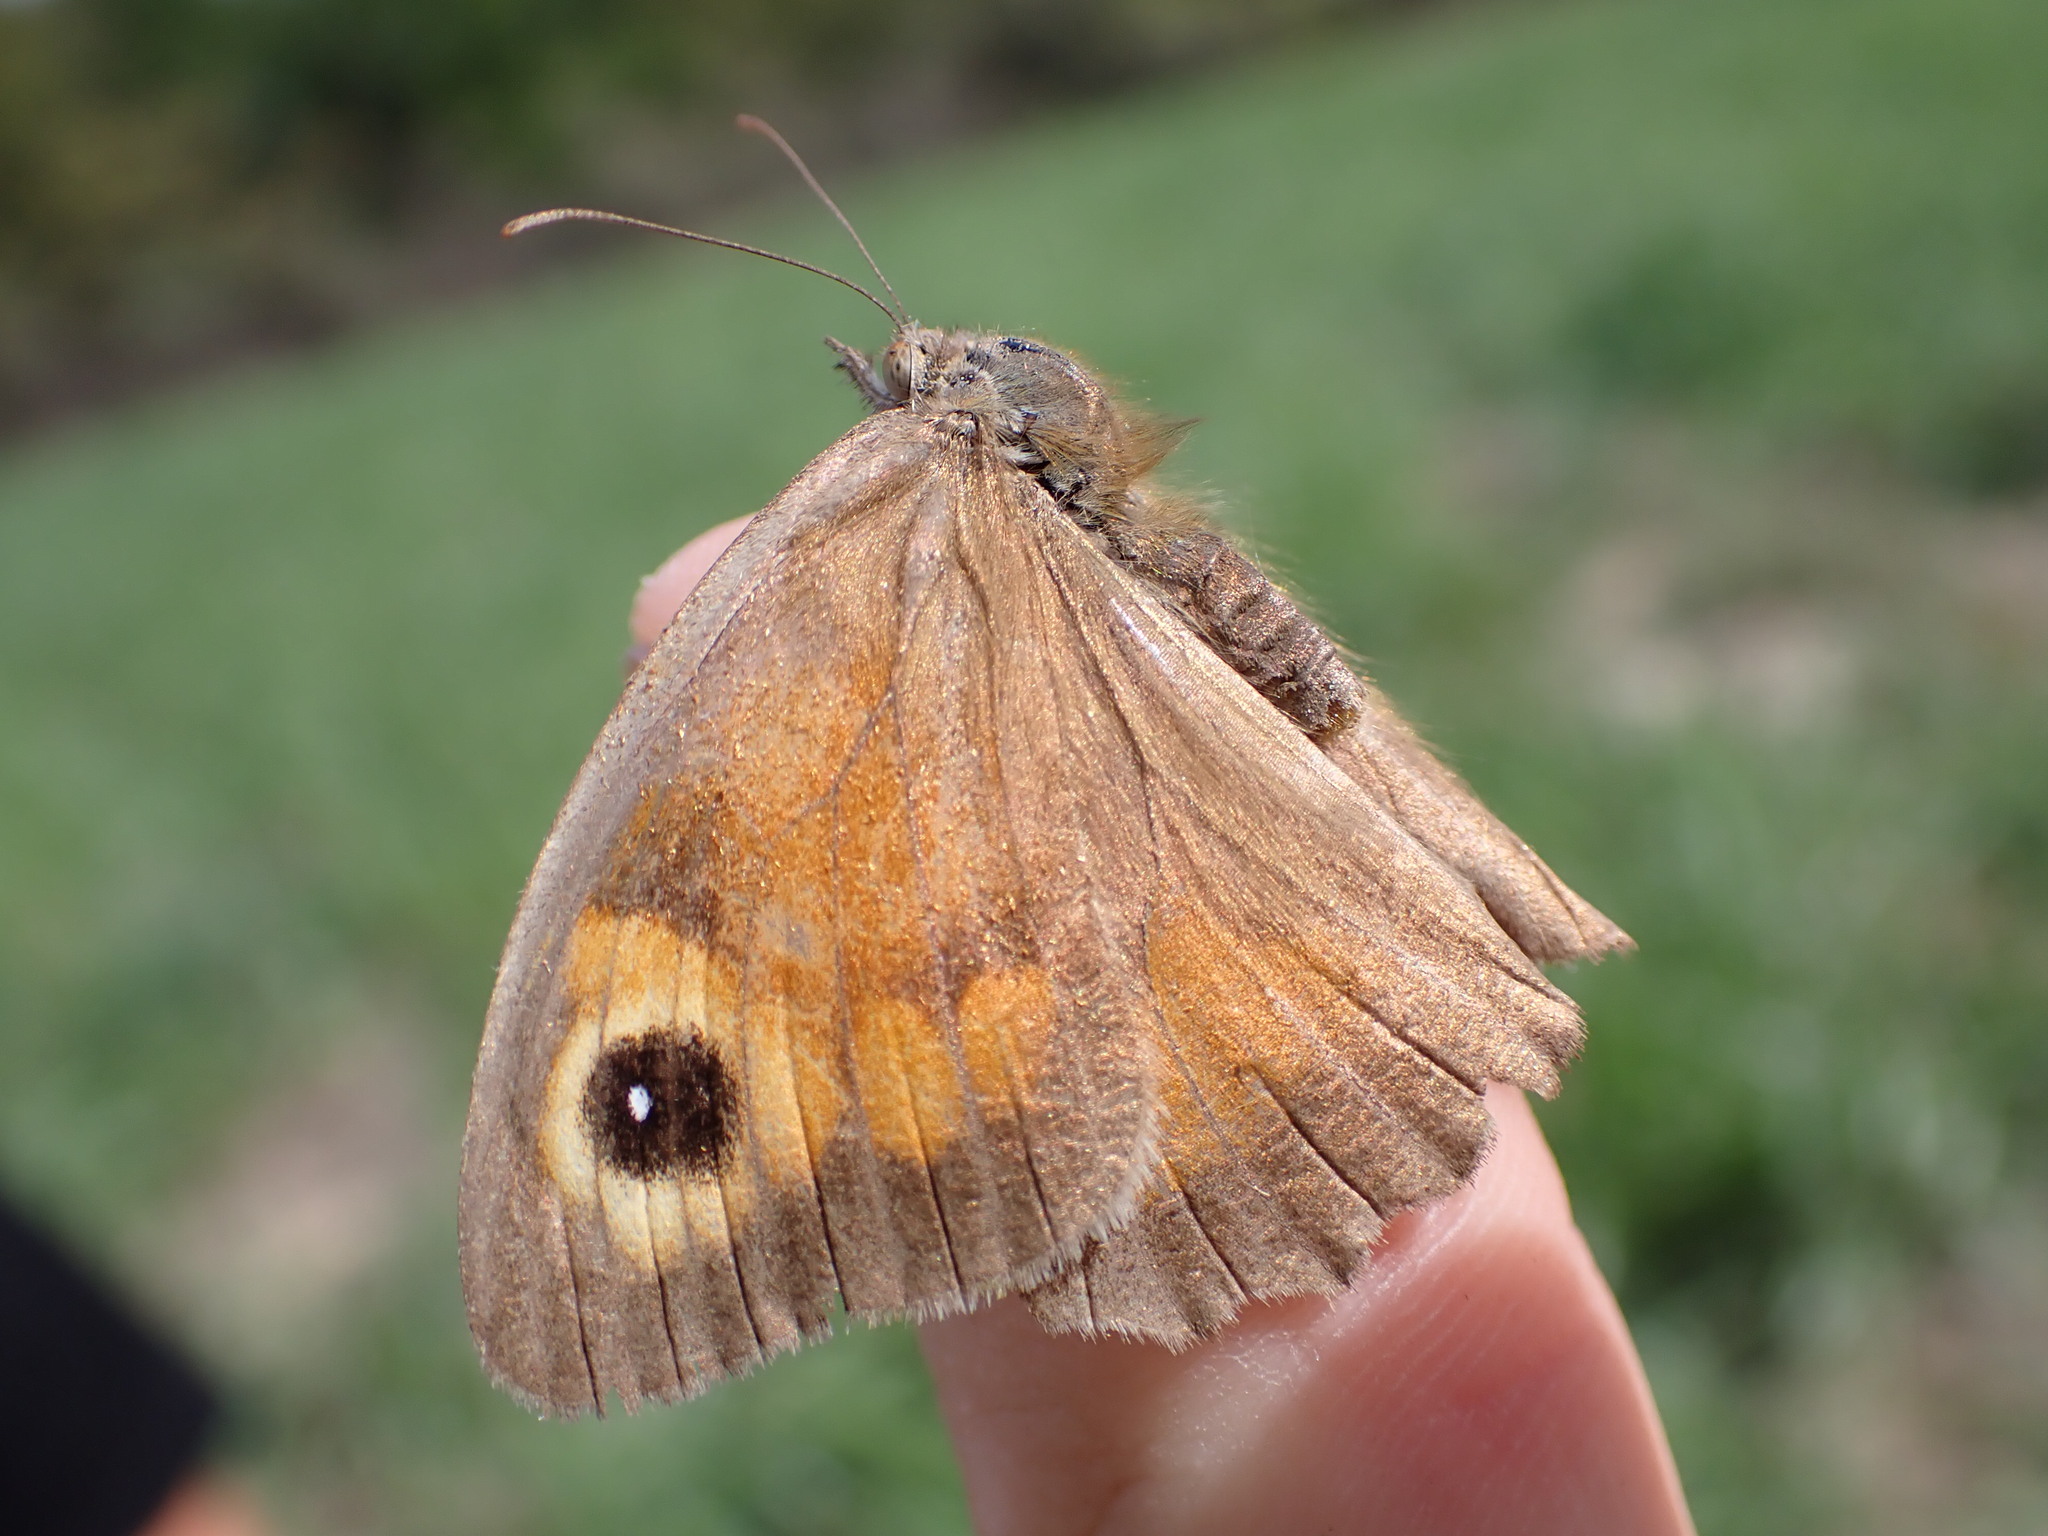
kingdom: Animalia
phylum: Arthropoda
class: Insecta
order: Lepidoptera
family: Nymphalidae
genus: Maniola
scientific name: Maniola jurtina
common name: Meadow brown
